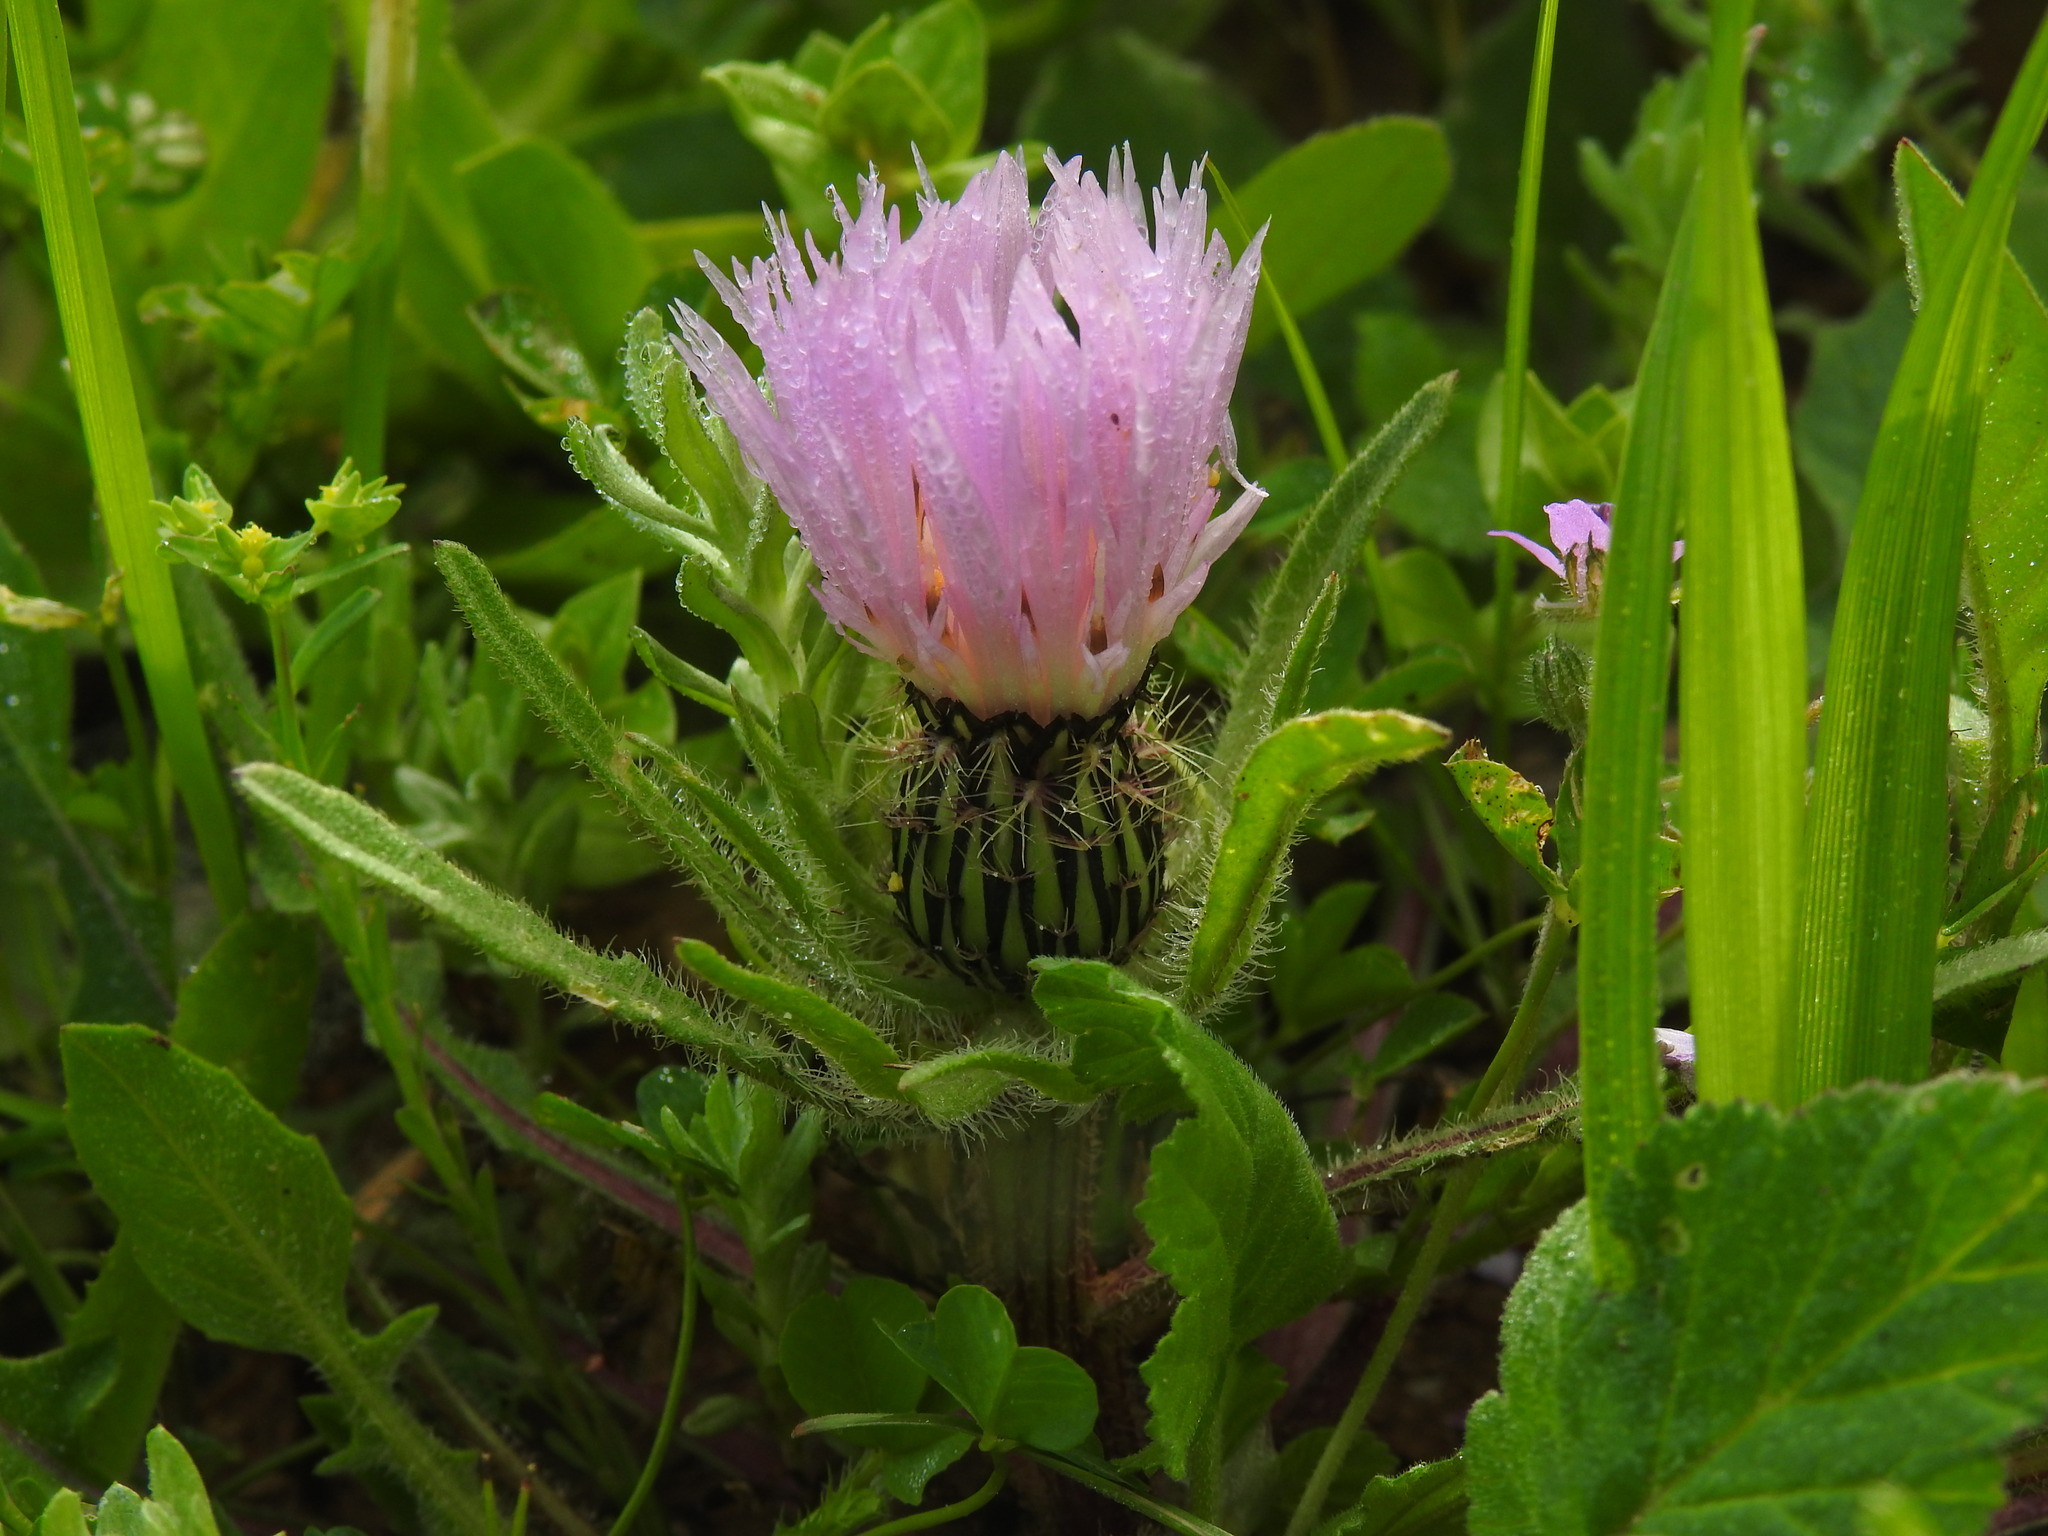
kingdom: Plantae
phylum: Tracheophyta
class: Magnoliopsida
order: Asterales
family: Asteraceae
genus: Centaurea
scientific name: Centaurea pullata
